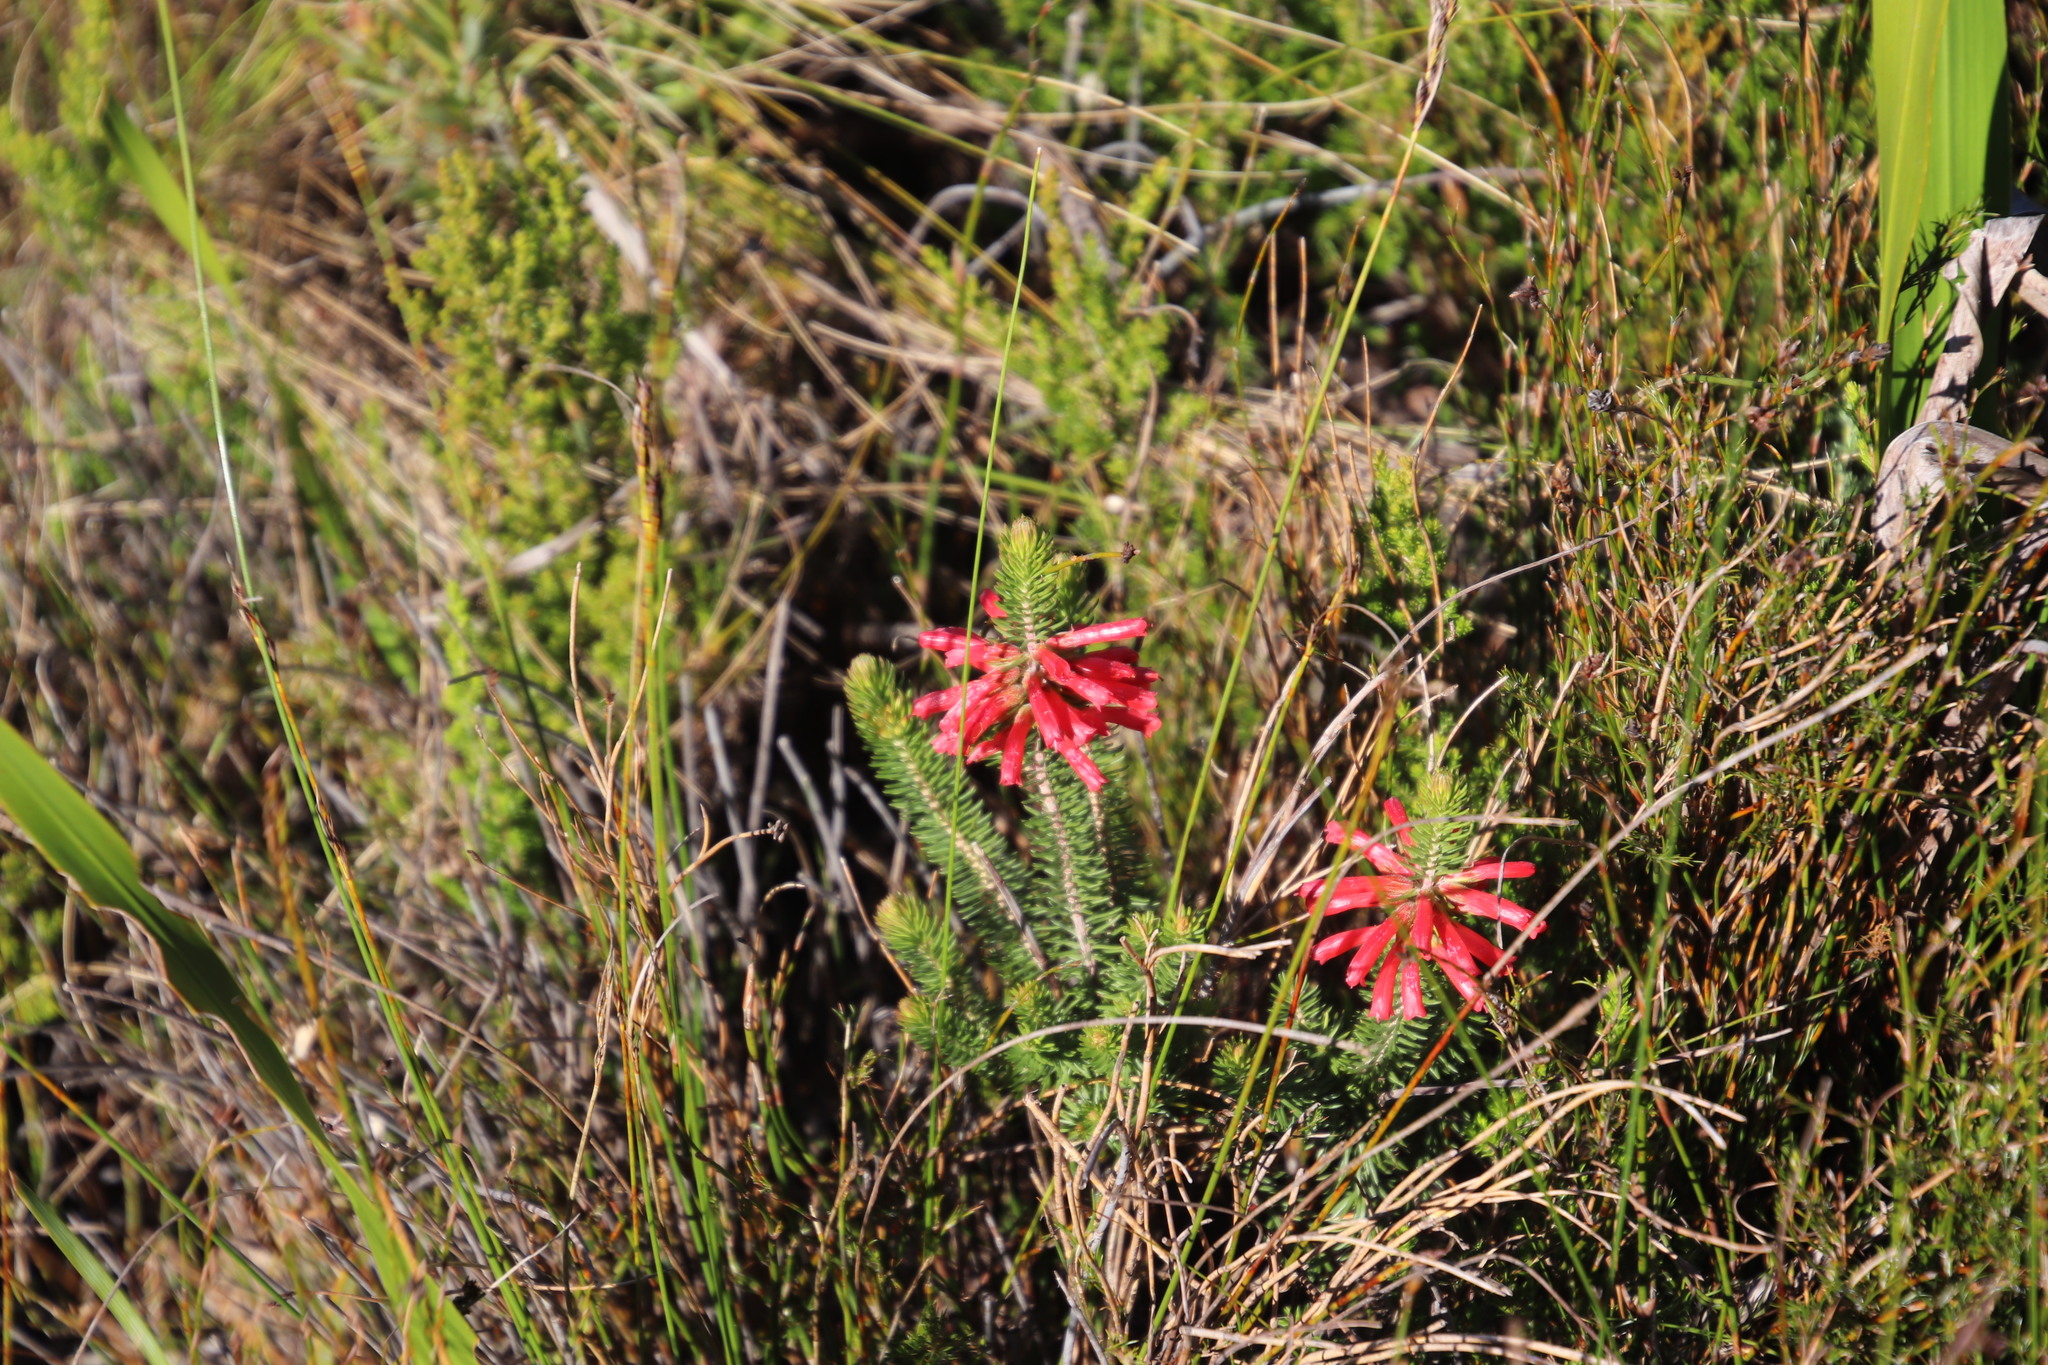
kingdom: Plantae
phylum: Tracheophyta
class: Magnoliopsida
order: Ericales
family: Ericaceae
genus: Erica
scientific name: Erica abietina
